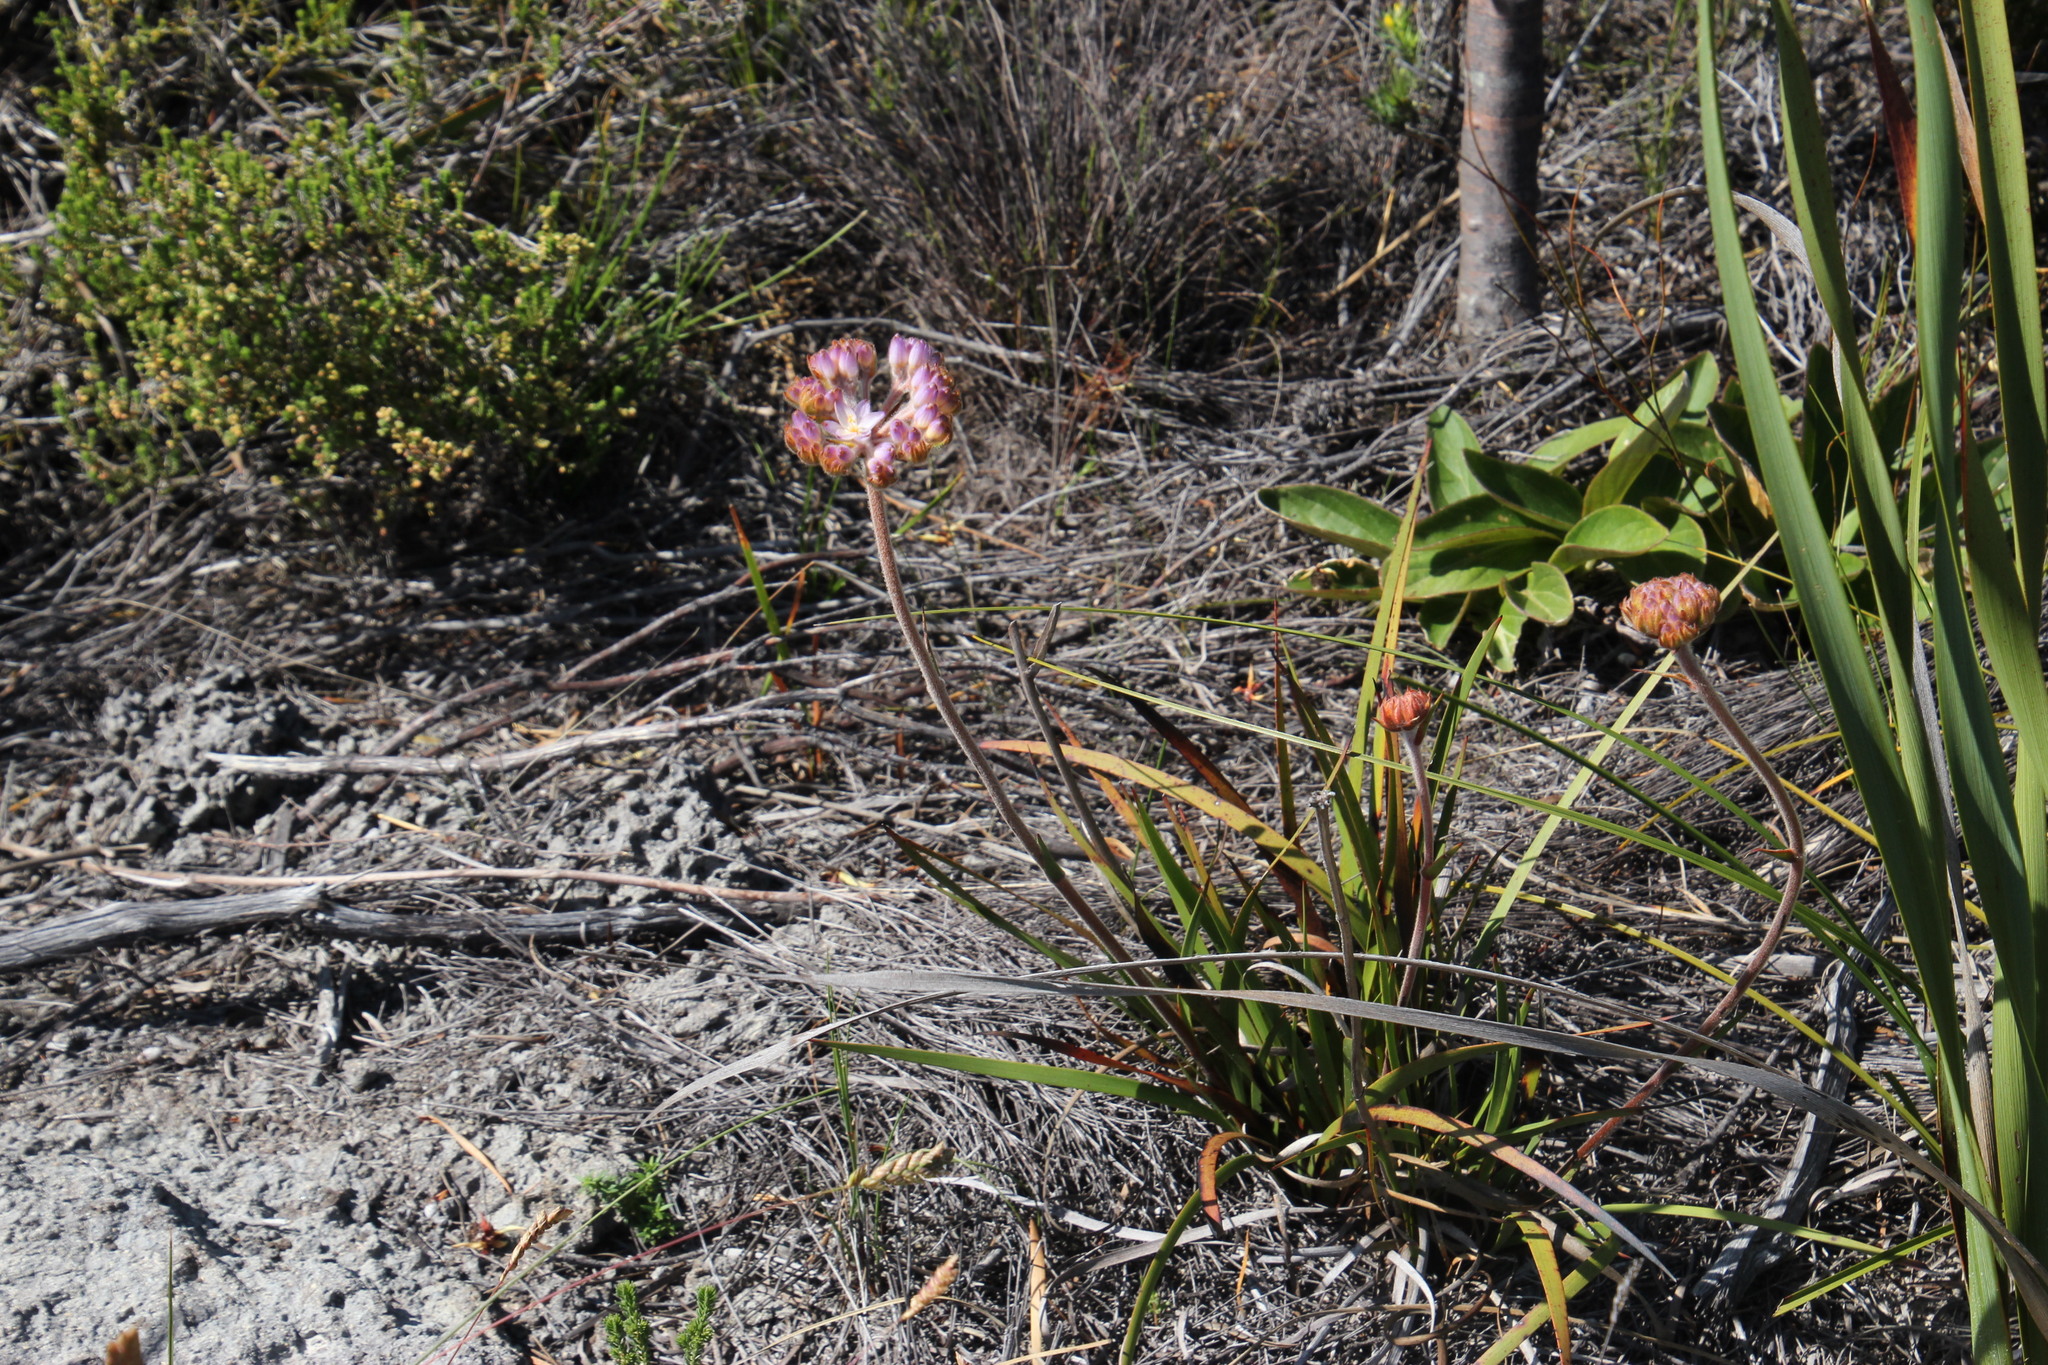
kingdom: Plantae
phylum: Tracheophyta
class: Liliopsida
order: Commelinales
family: Haemodoraceae
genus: Dilatris
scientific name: Dilatris pillansii
